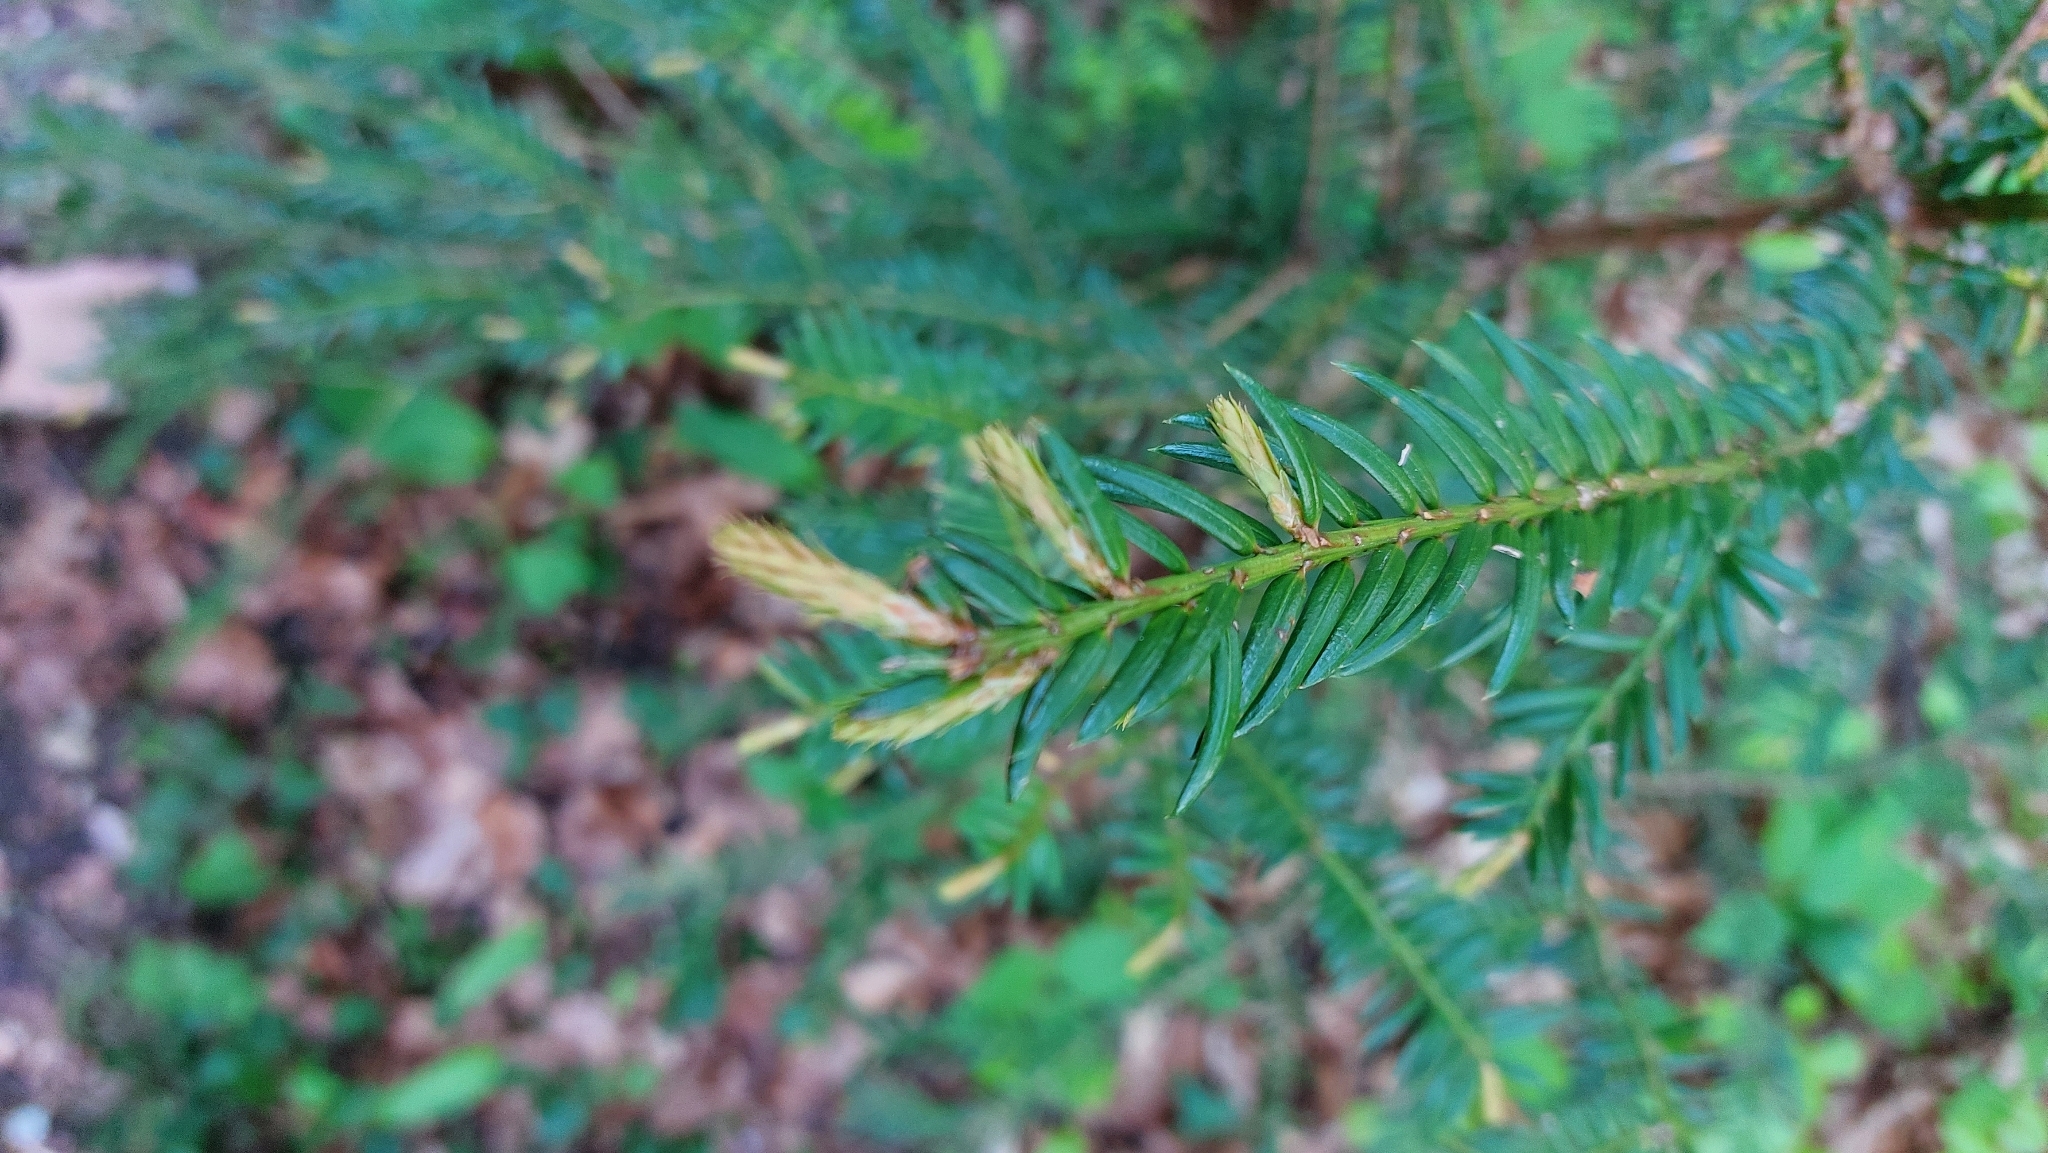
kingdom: Plantae
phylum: Tracheophyta
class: Pinopsida
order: Pinales
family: Taxaceae
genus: Taxus
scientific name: Taxus baccata
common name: Yew
